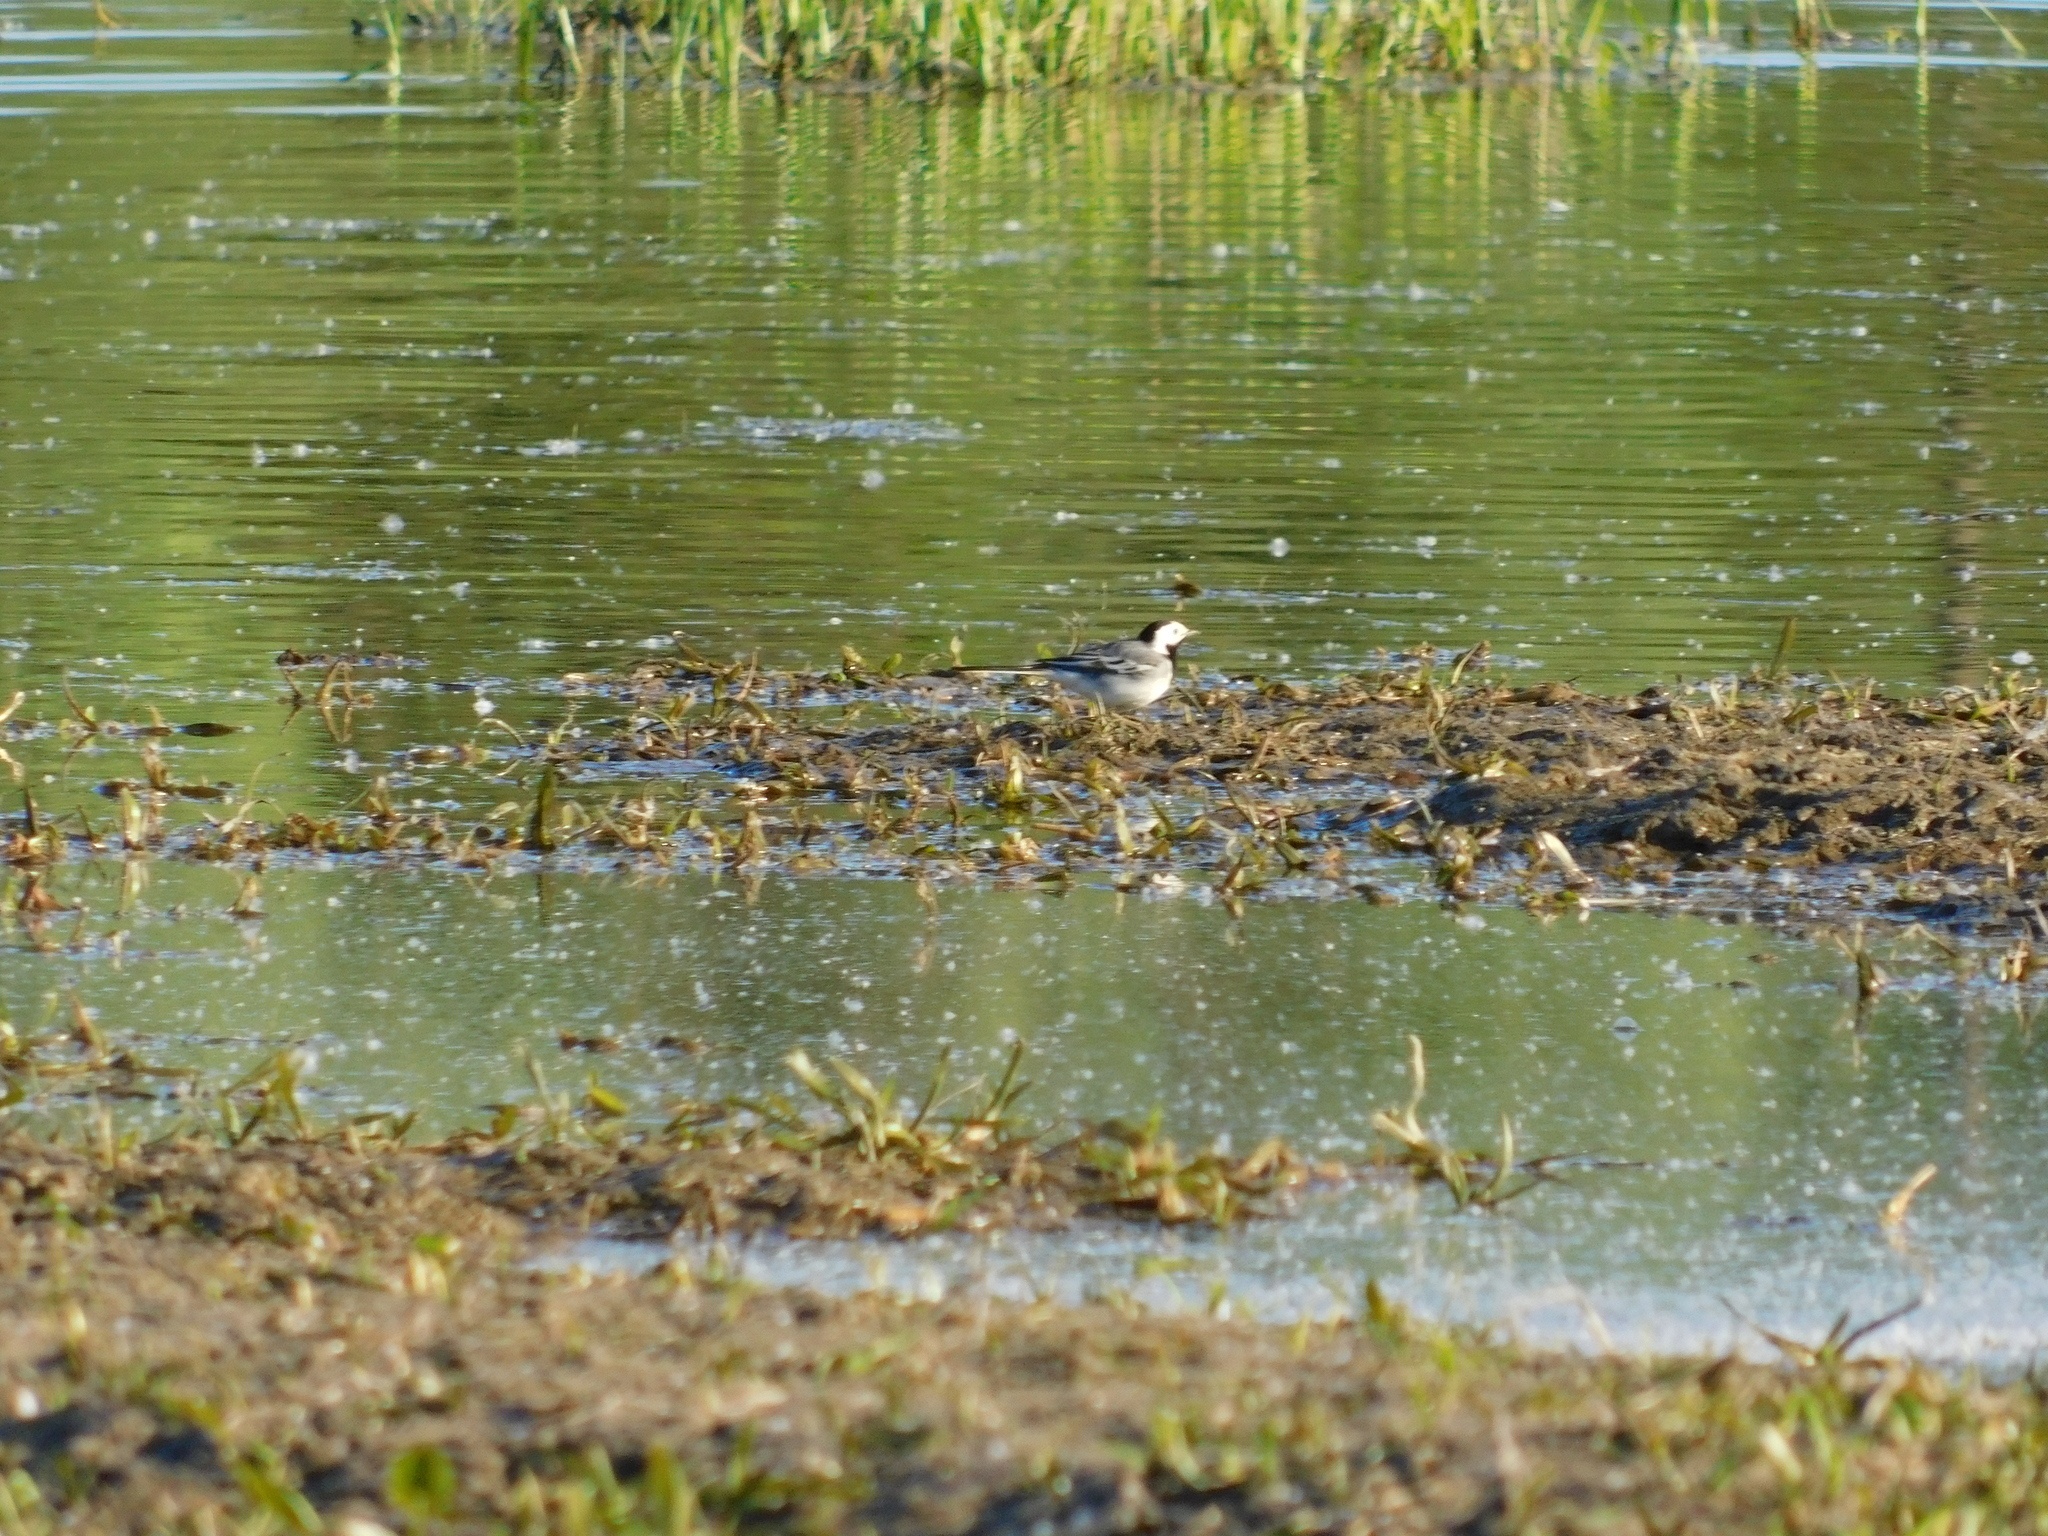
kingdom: Animalia
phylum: Chordata
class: Aves
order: Passeriformes
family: Motacillidae
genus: Motacilla
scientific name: Motacilla alba
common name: White wagtail
